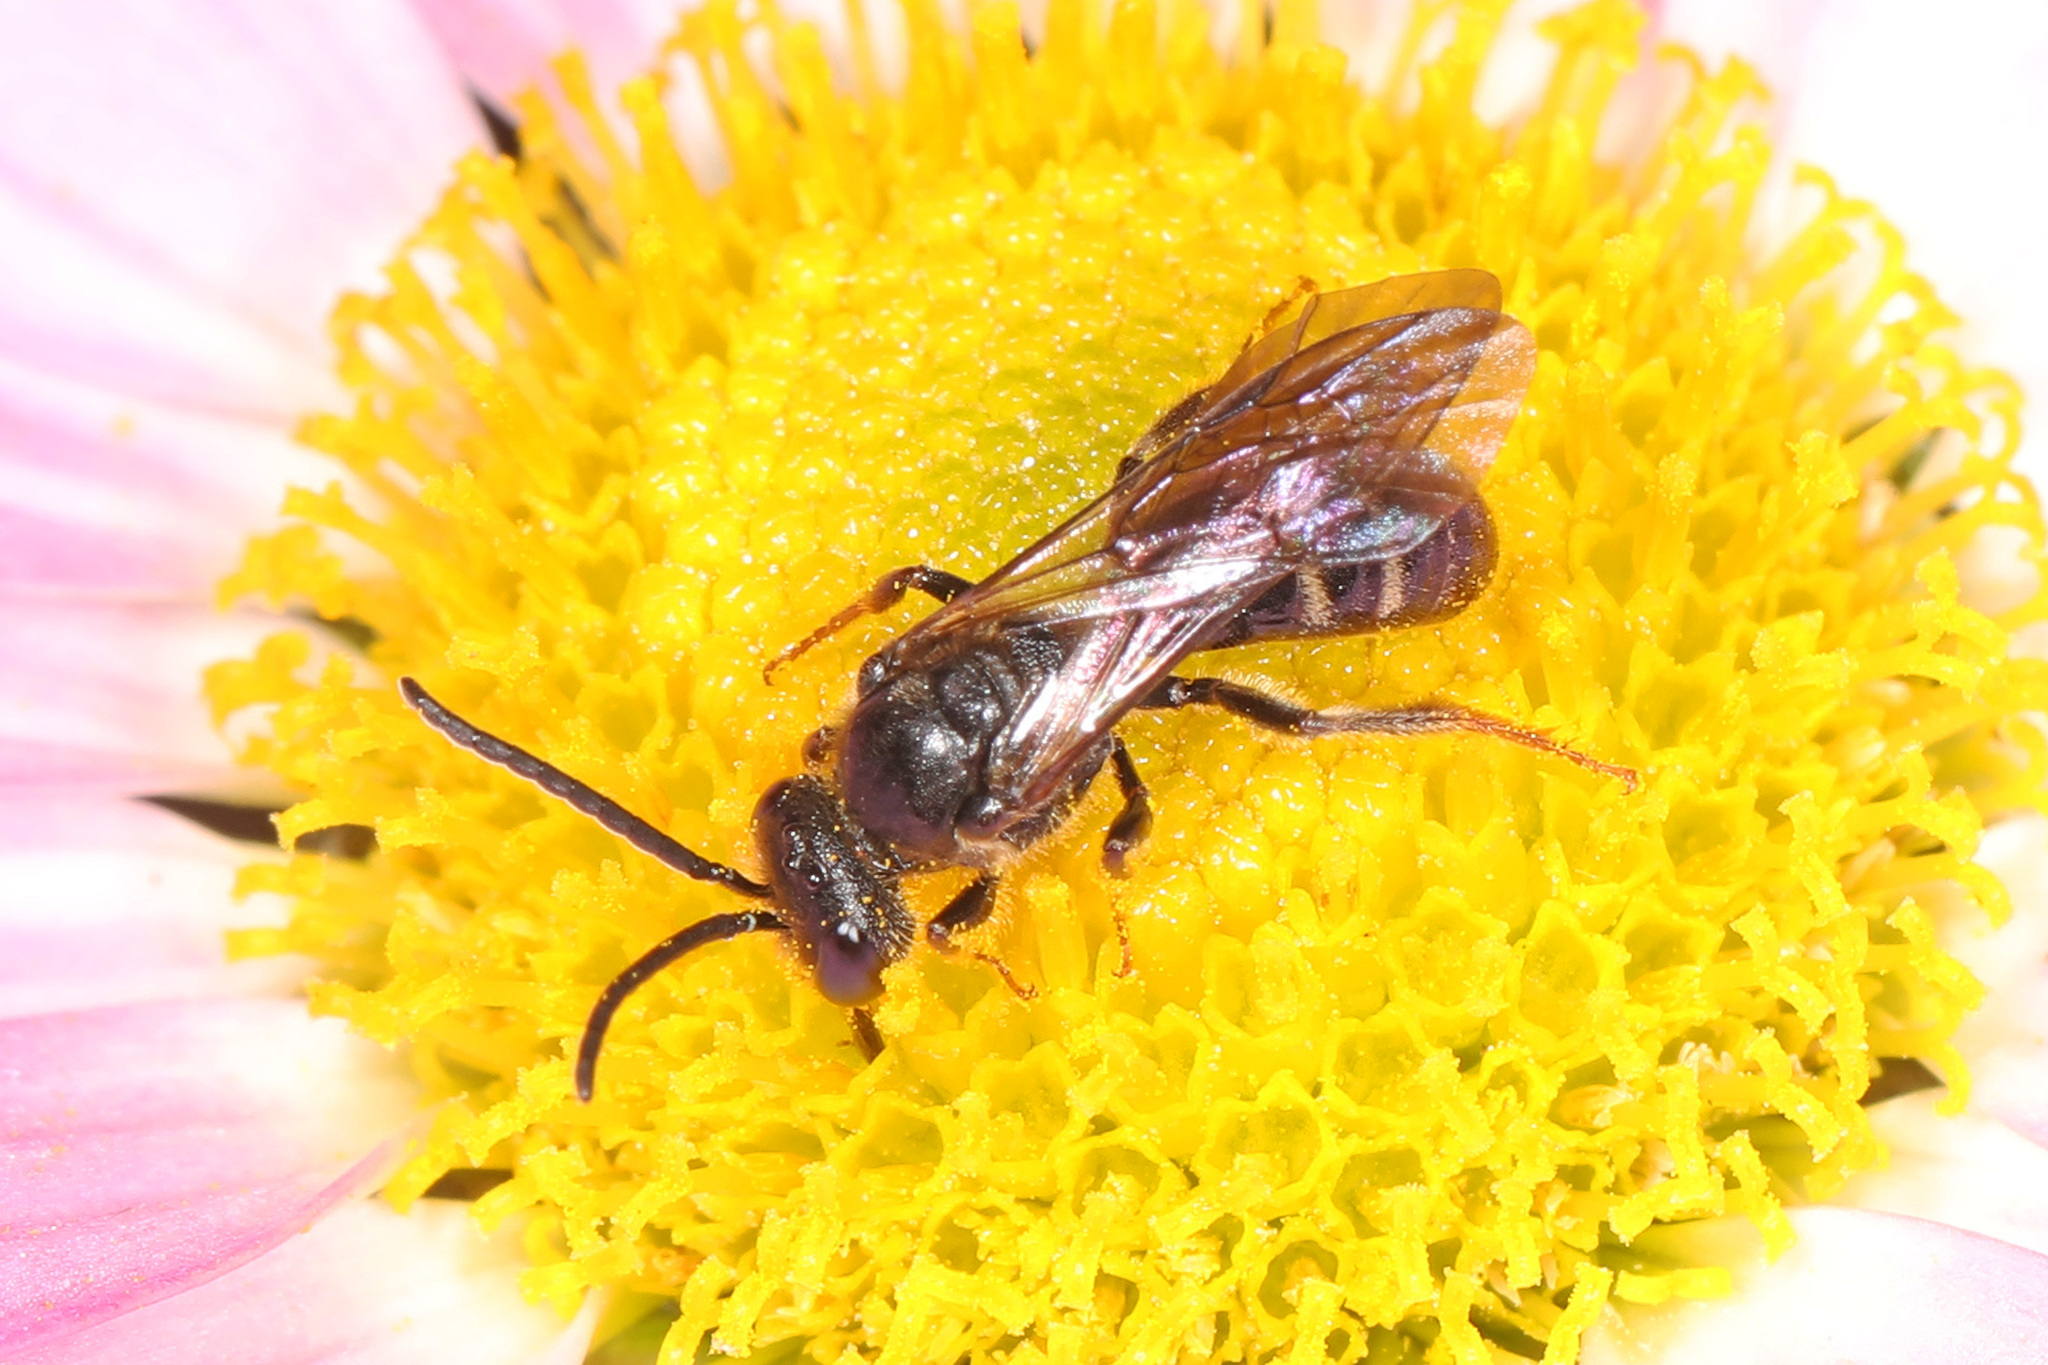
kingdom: Animalia
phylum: Arthropoda
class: Insecta
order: Hymenoptera
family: Halictidae
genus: Lasioglossum
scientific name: Lasioglossum fuscipenne
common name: Brown-winged sweat bee
